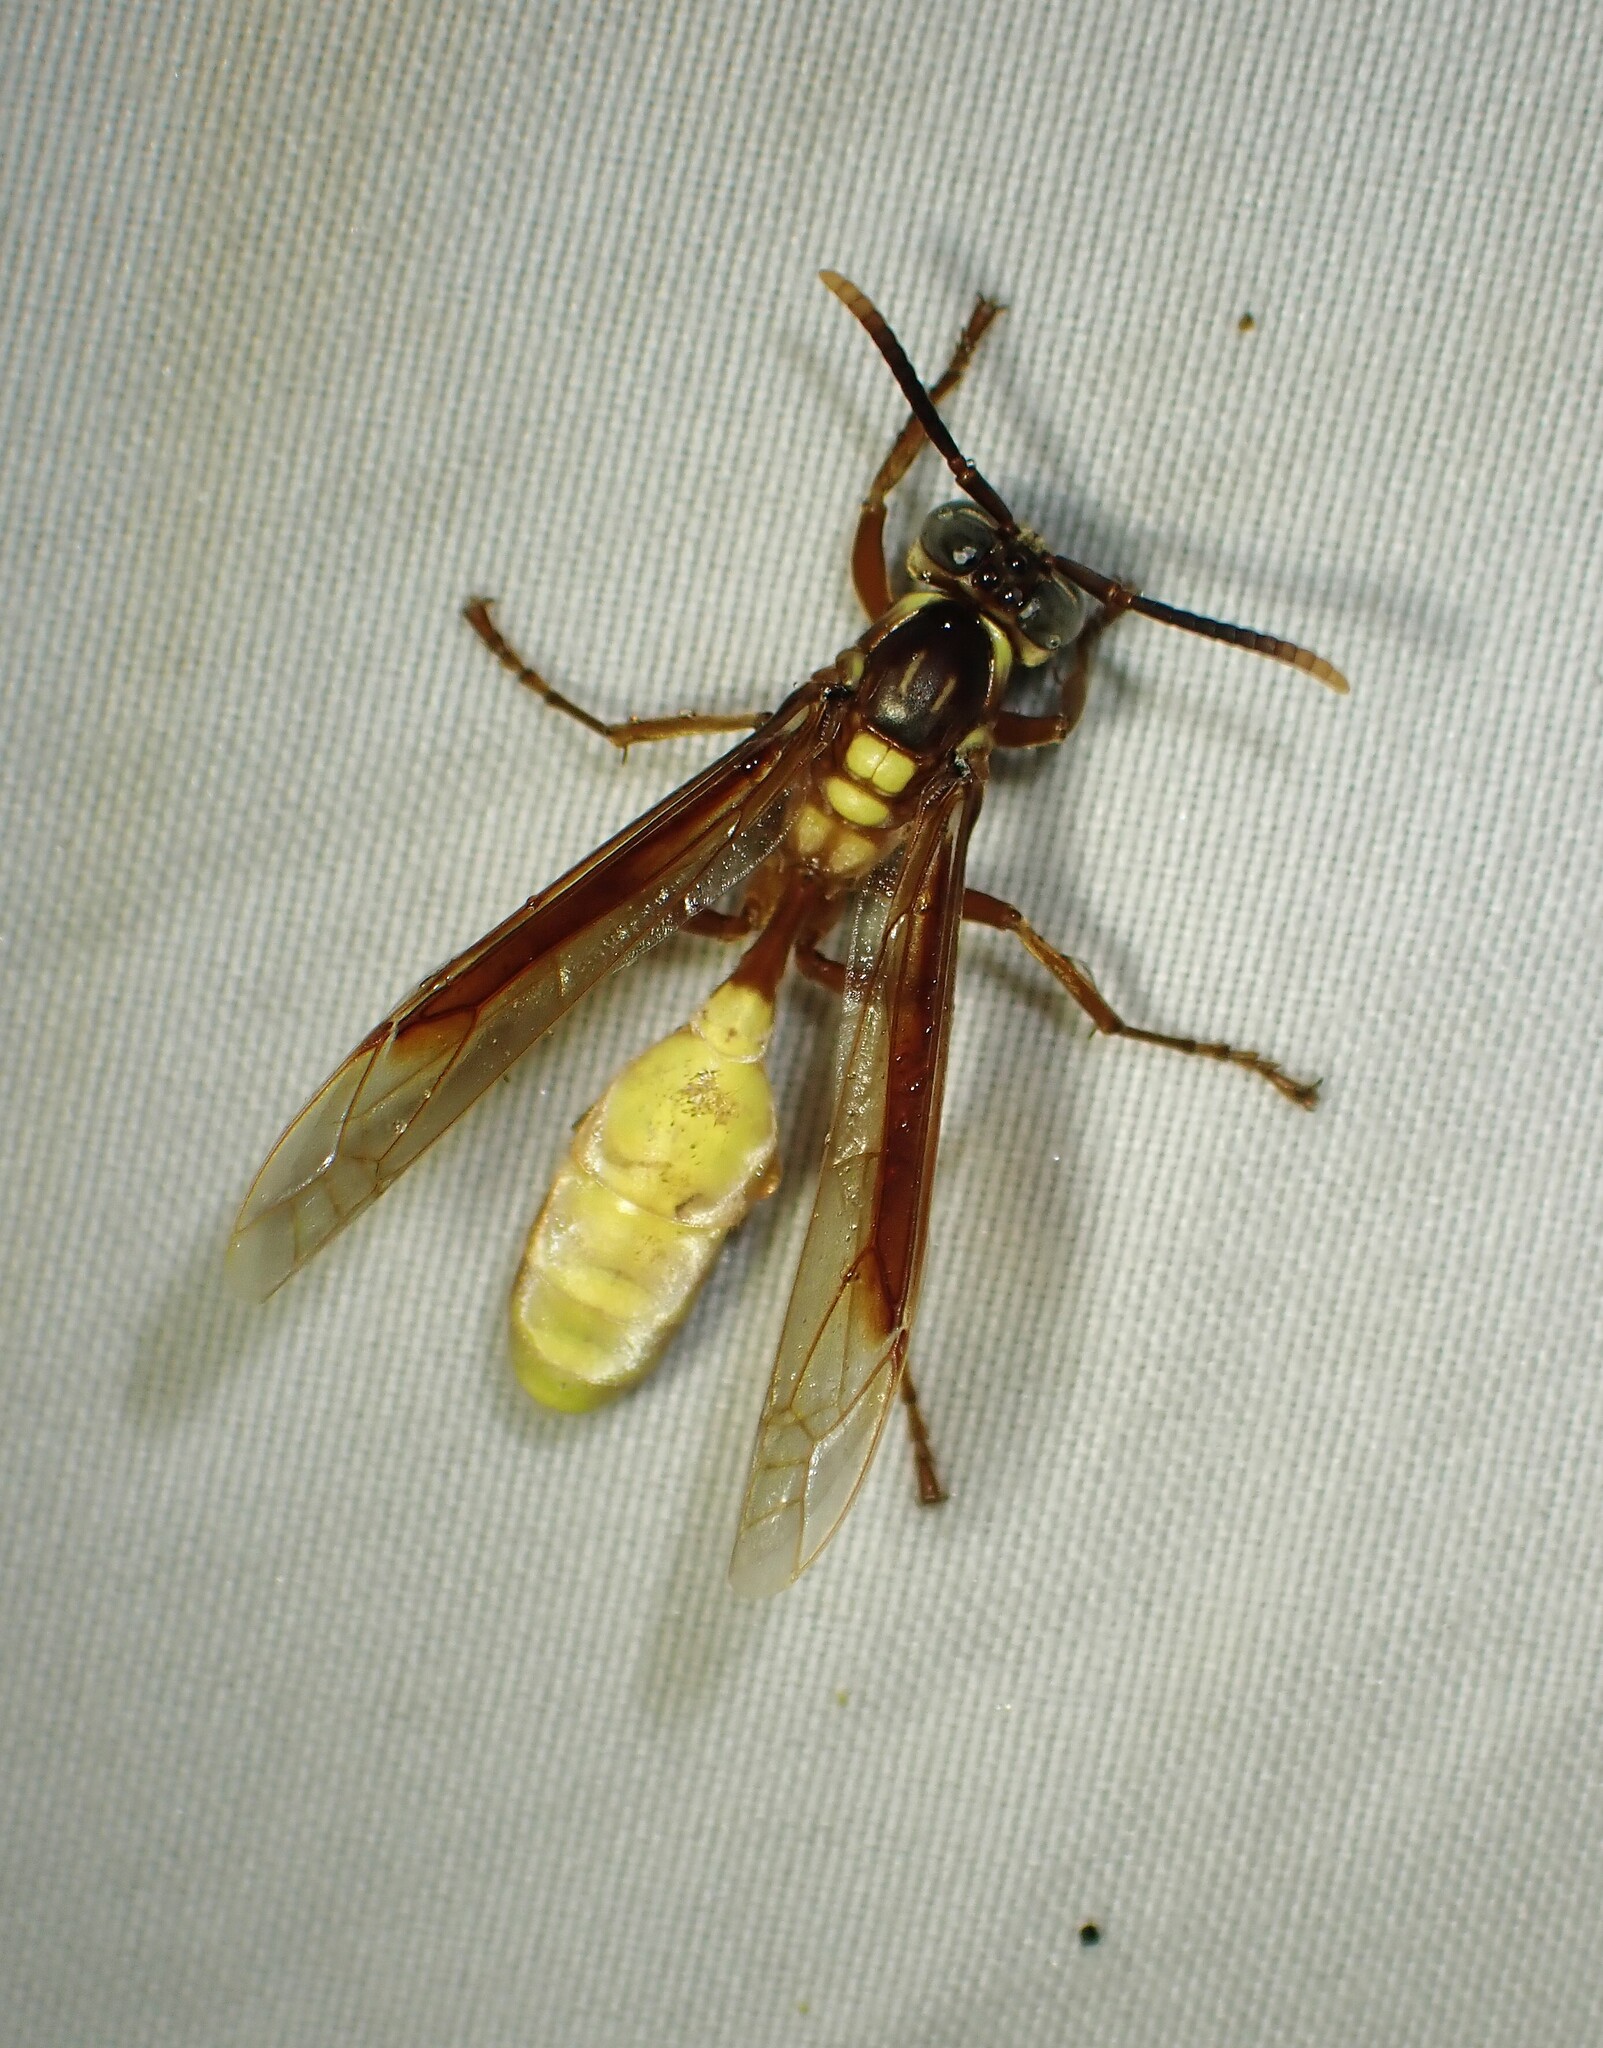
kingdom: Animalia
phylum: Arthropoda
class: Insecta
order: Hymenoptera
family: Vespidae
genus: Apoica
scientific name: Apoica pallens
